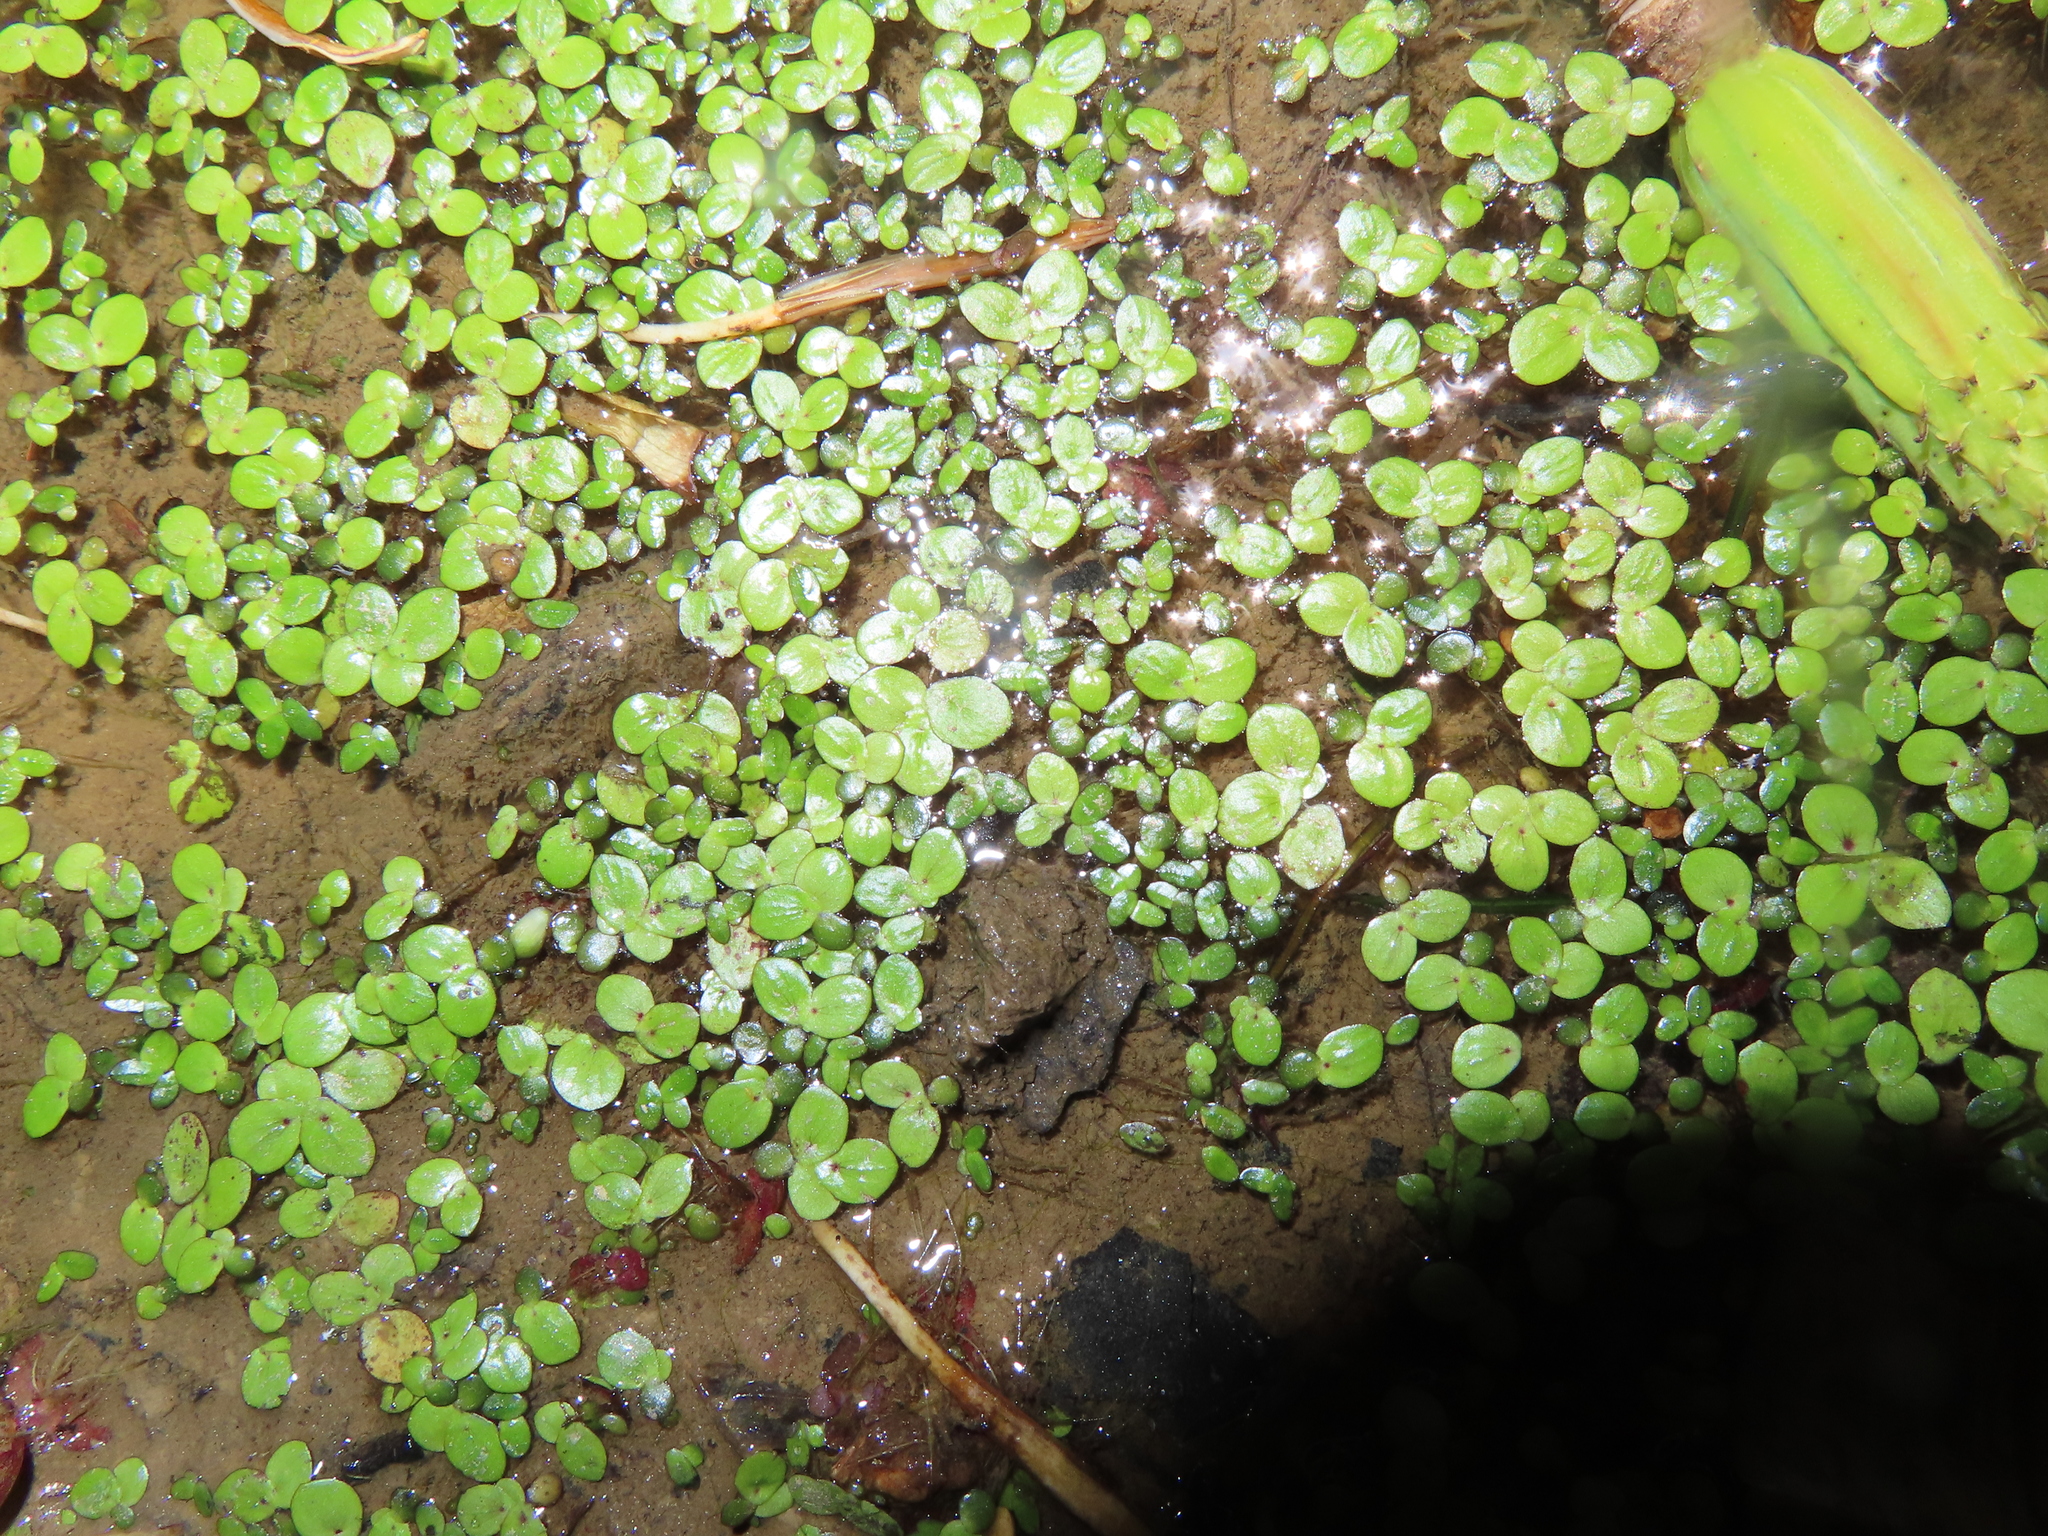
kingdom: Plantae
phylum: Tracheophyta
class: Liliopsida
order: Alismatales
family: Araceae
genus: Lemna
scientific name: Lemna minor
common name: Common duckweed
